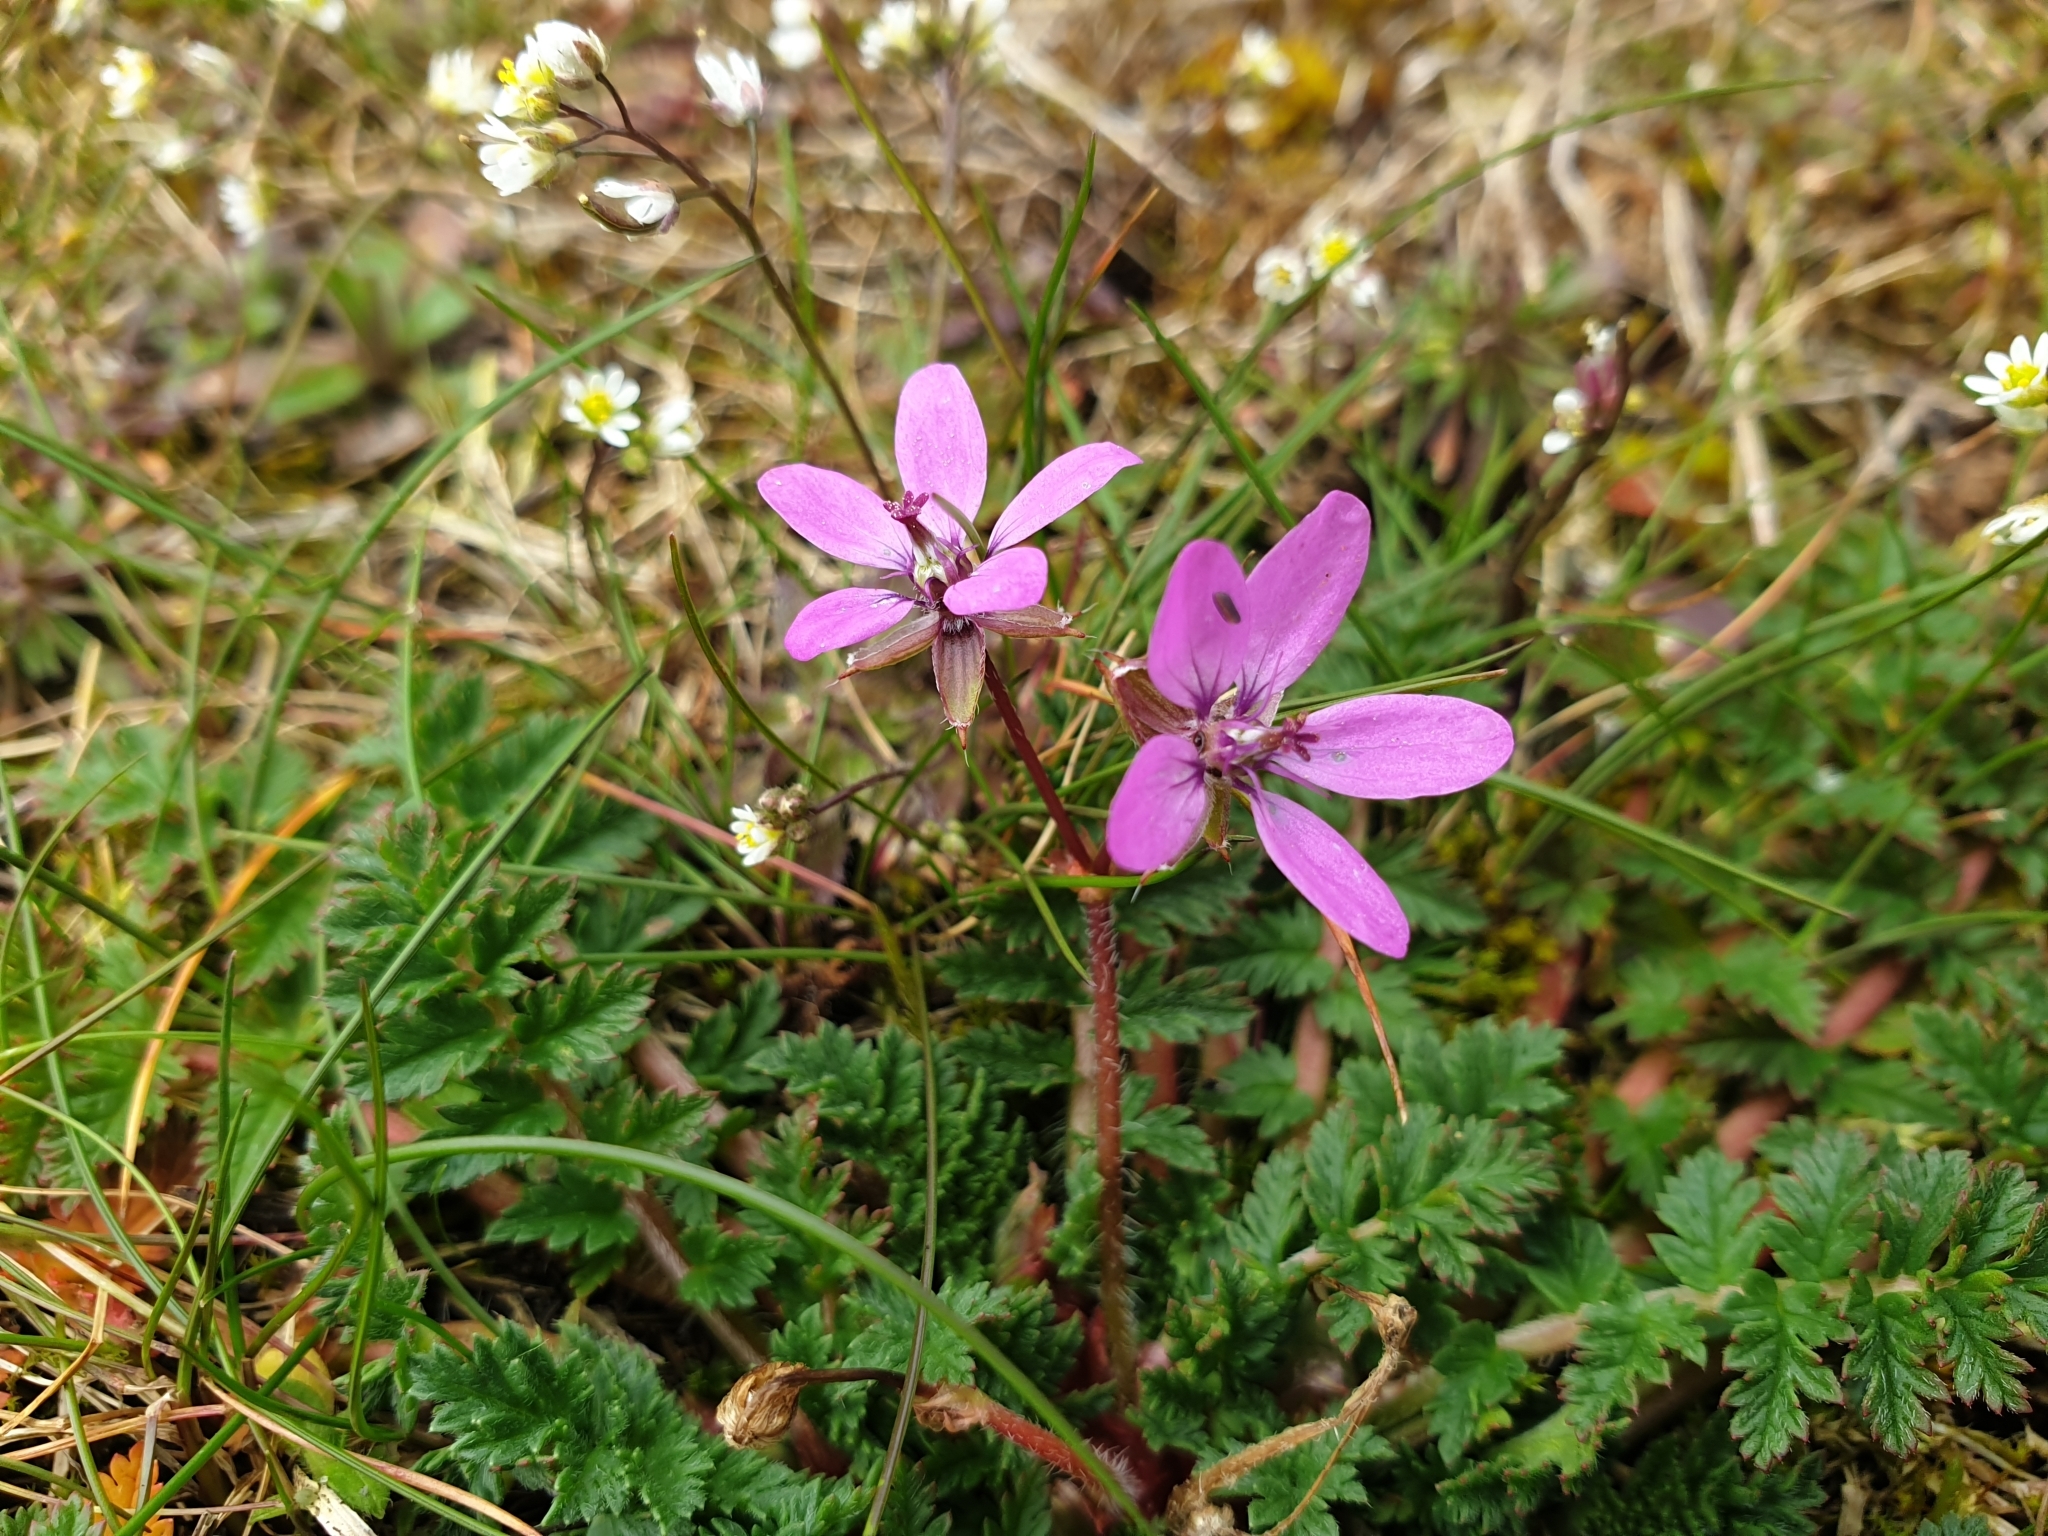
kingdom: Plantae
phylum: Tracheophyta
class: Magnoliopsida
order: Geraniales
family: Geraniaceae
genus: Erodium
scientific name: Erodium cicutarium
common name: Common stork's-bill
